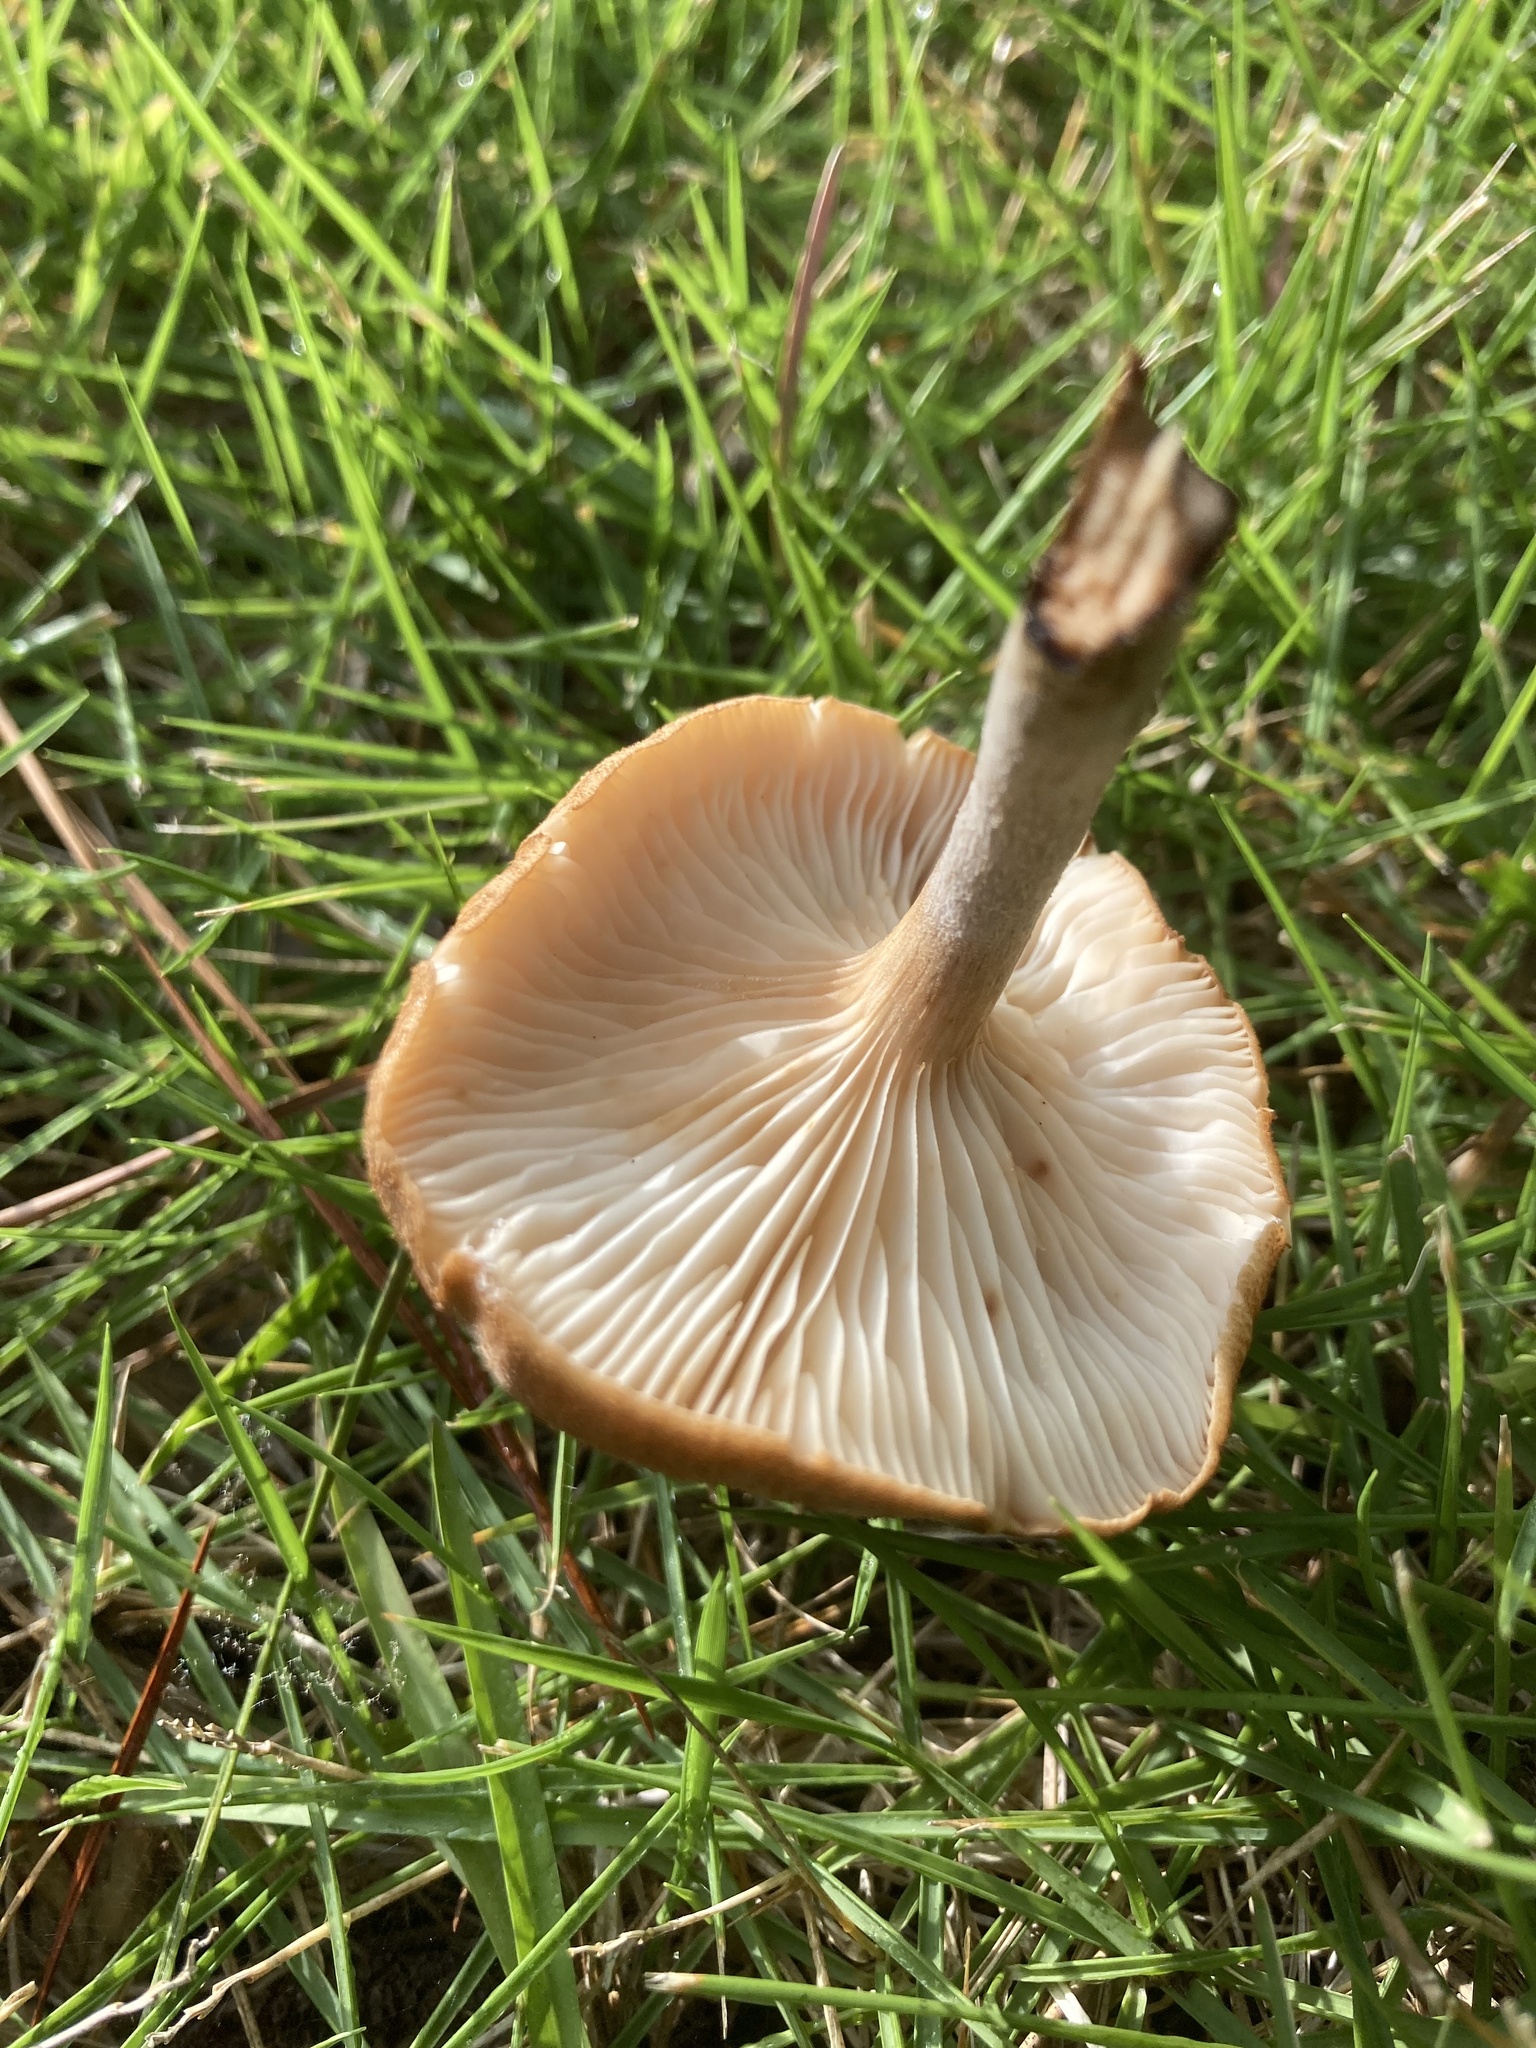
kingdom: Fungi
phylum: Basidiomycota
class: Agaricomycetes
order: Agaricales
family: Physalacriaceae
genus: Desarmillaria
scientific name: Desarmillaria caespitosa
